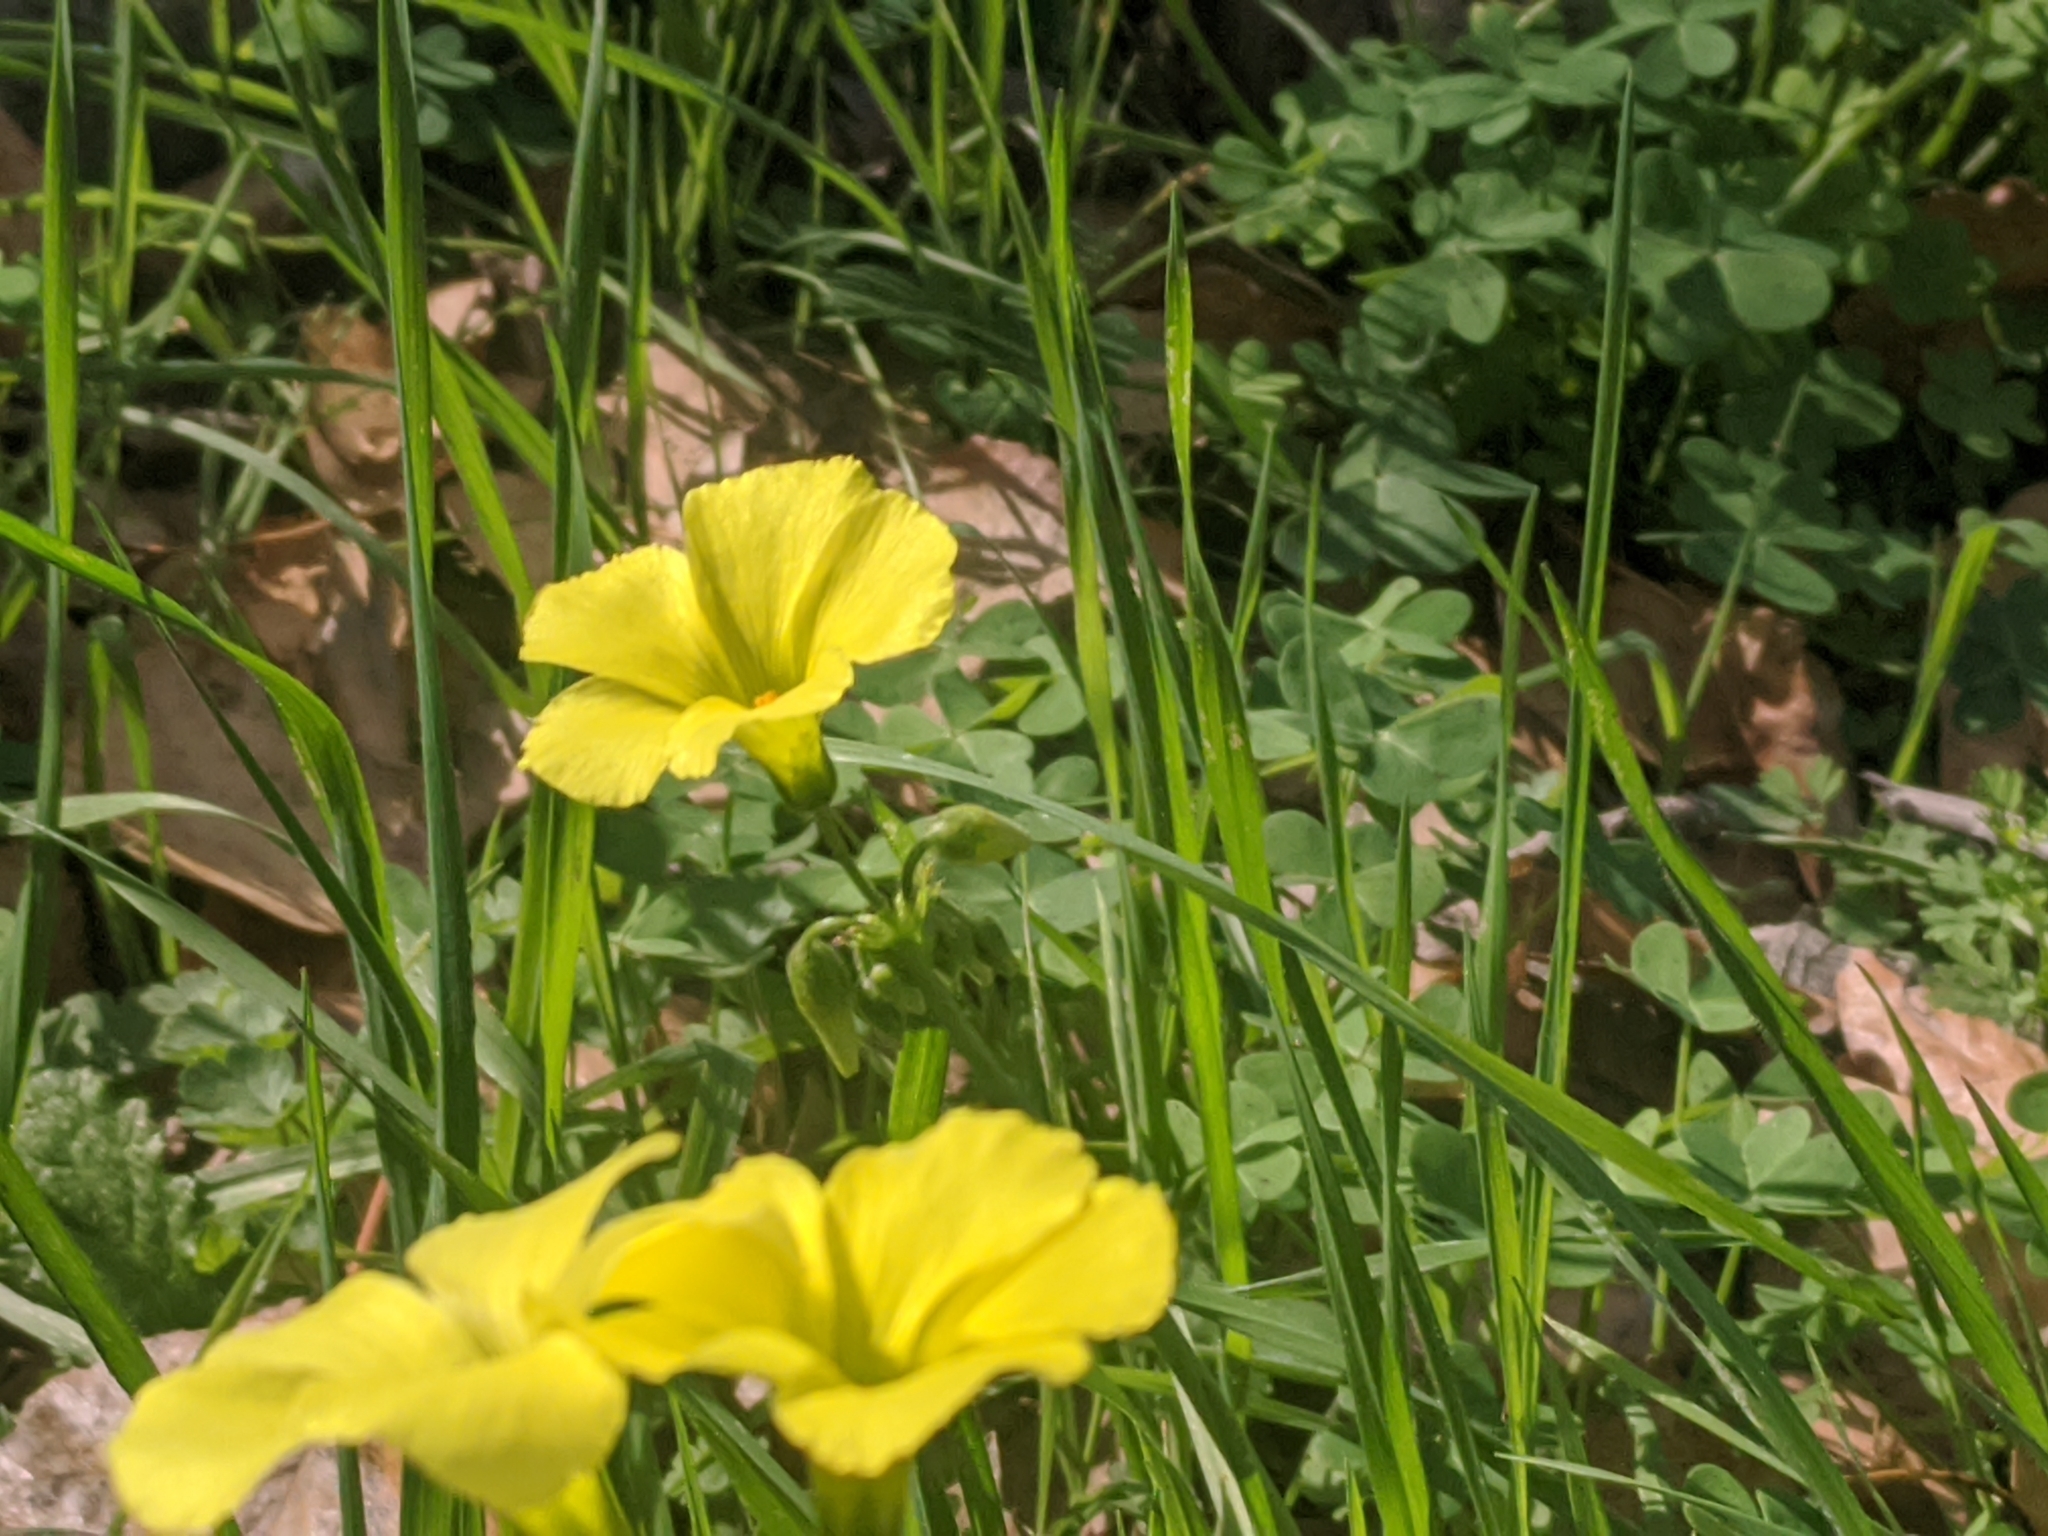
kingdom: Plantae
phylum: Tracheophyta
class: Magnoliopsida
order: Oxalidales
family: Oxalidaceae
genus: Oxalis
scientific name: Oxalis pes-caprae
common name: Bermuda-buttercup
